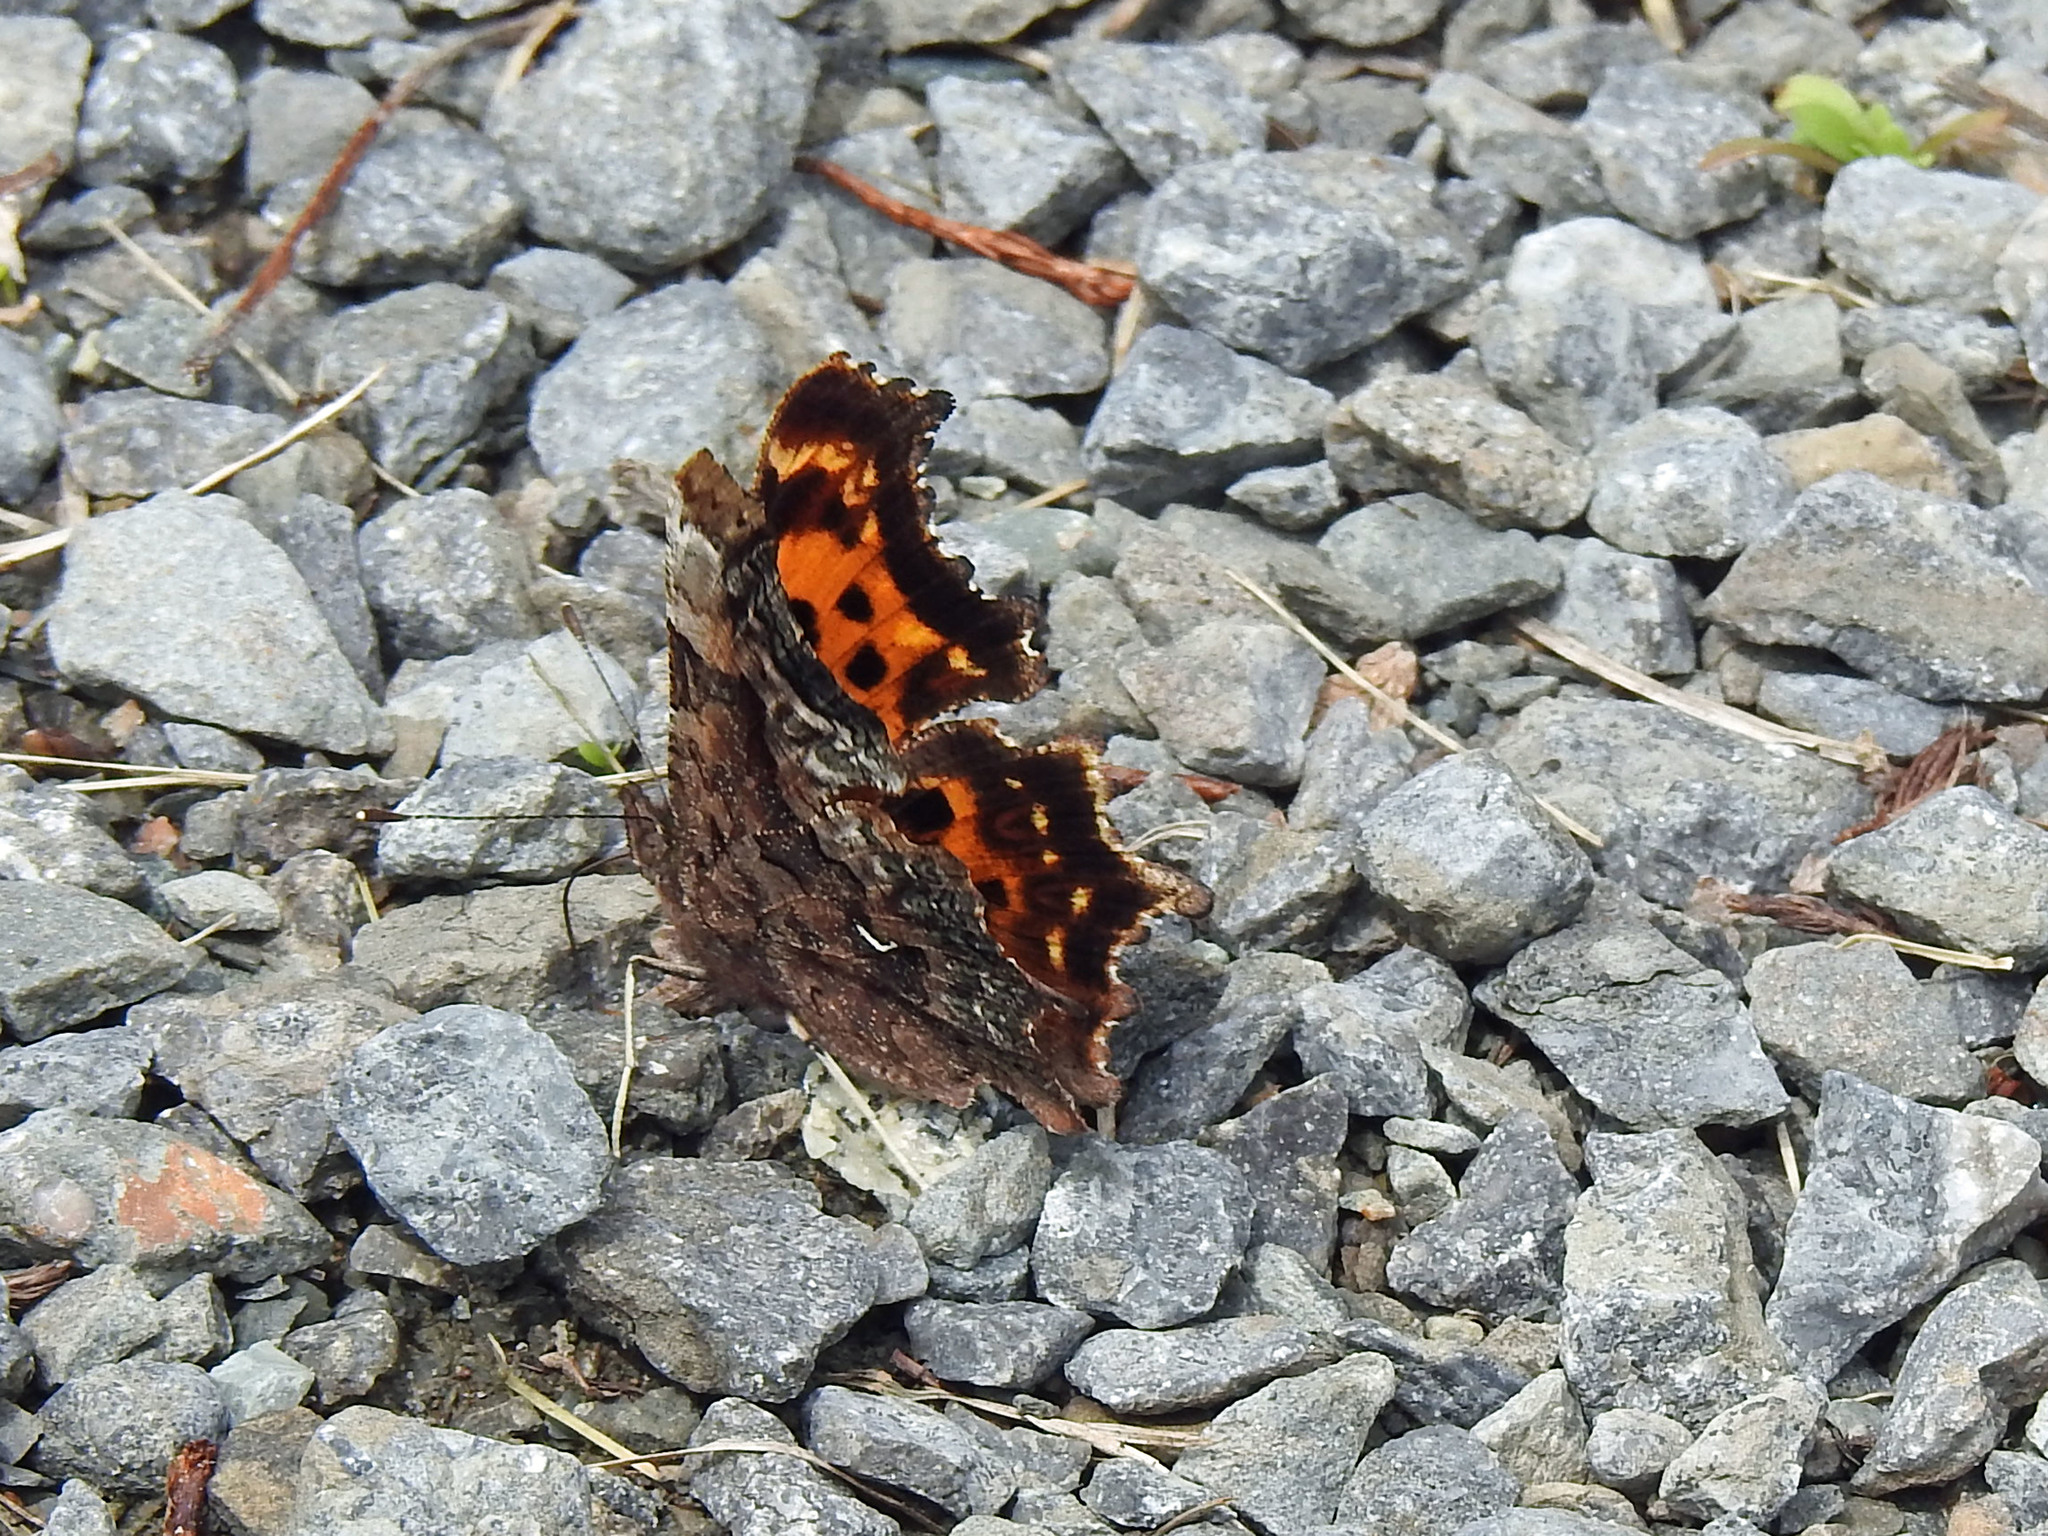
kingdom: Animalia
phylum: Arthropoda
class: Insecta
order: Lepidoptera
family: Nymphalidae
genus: Polygonia
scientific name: Polygonia faunus
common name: Green comma
